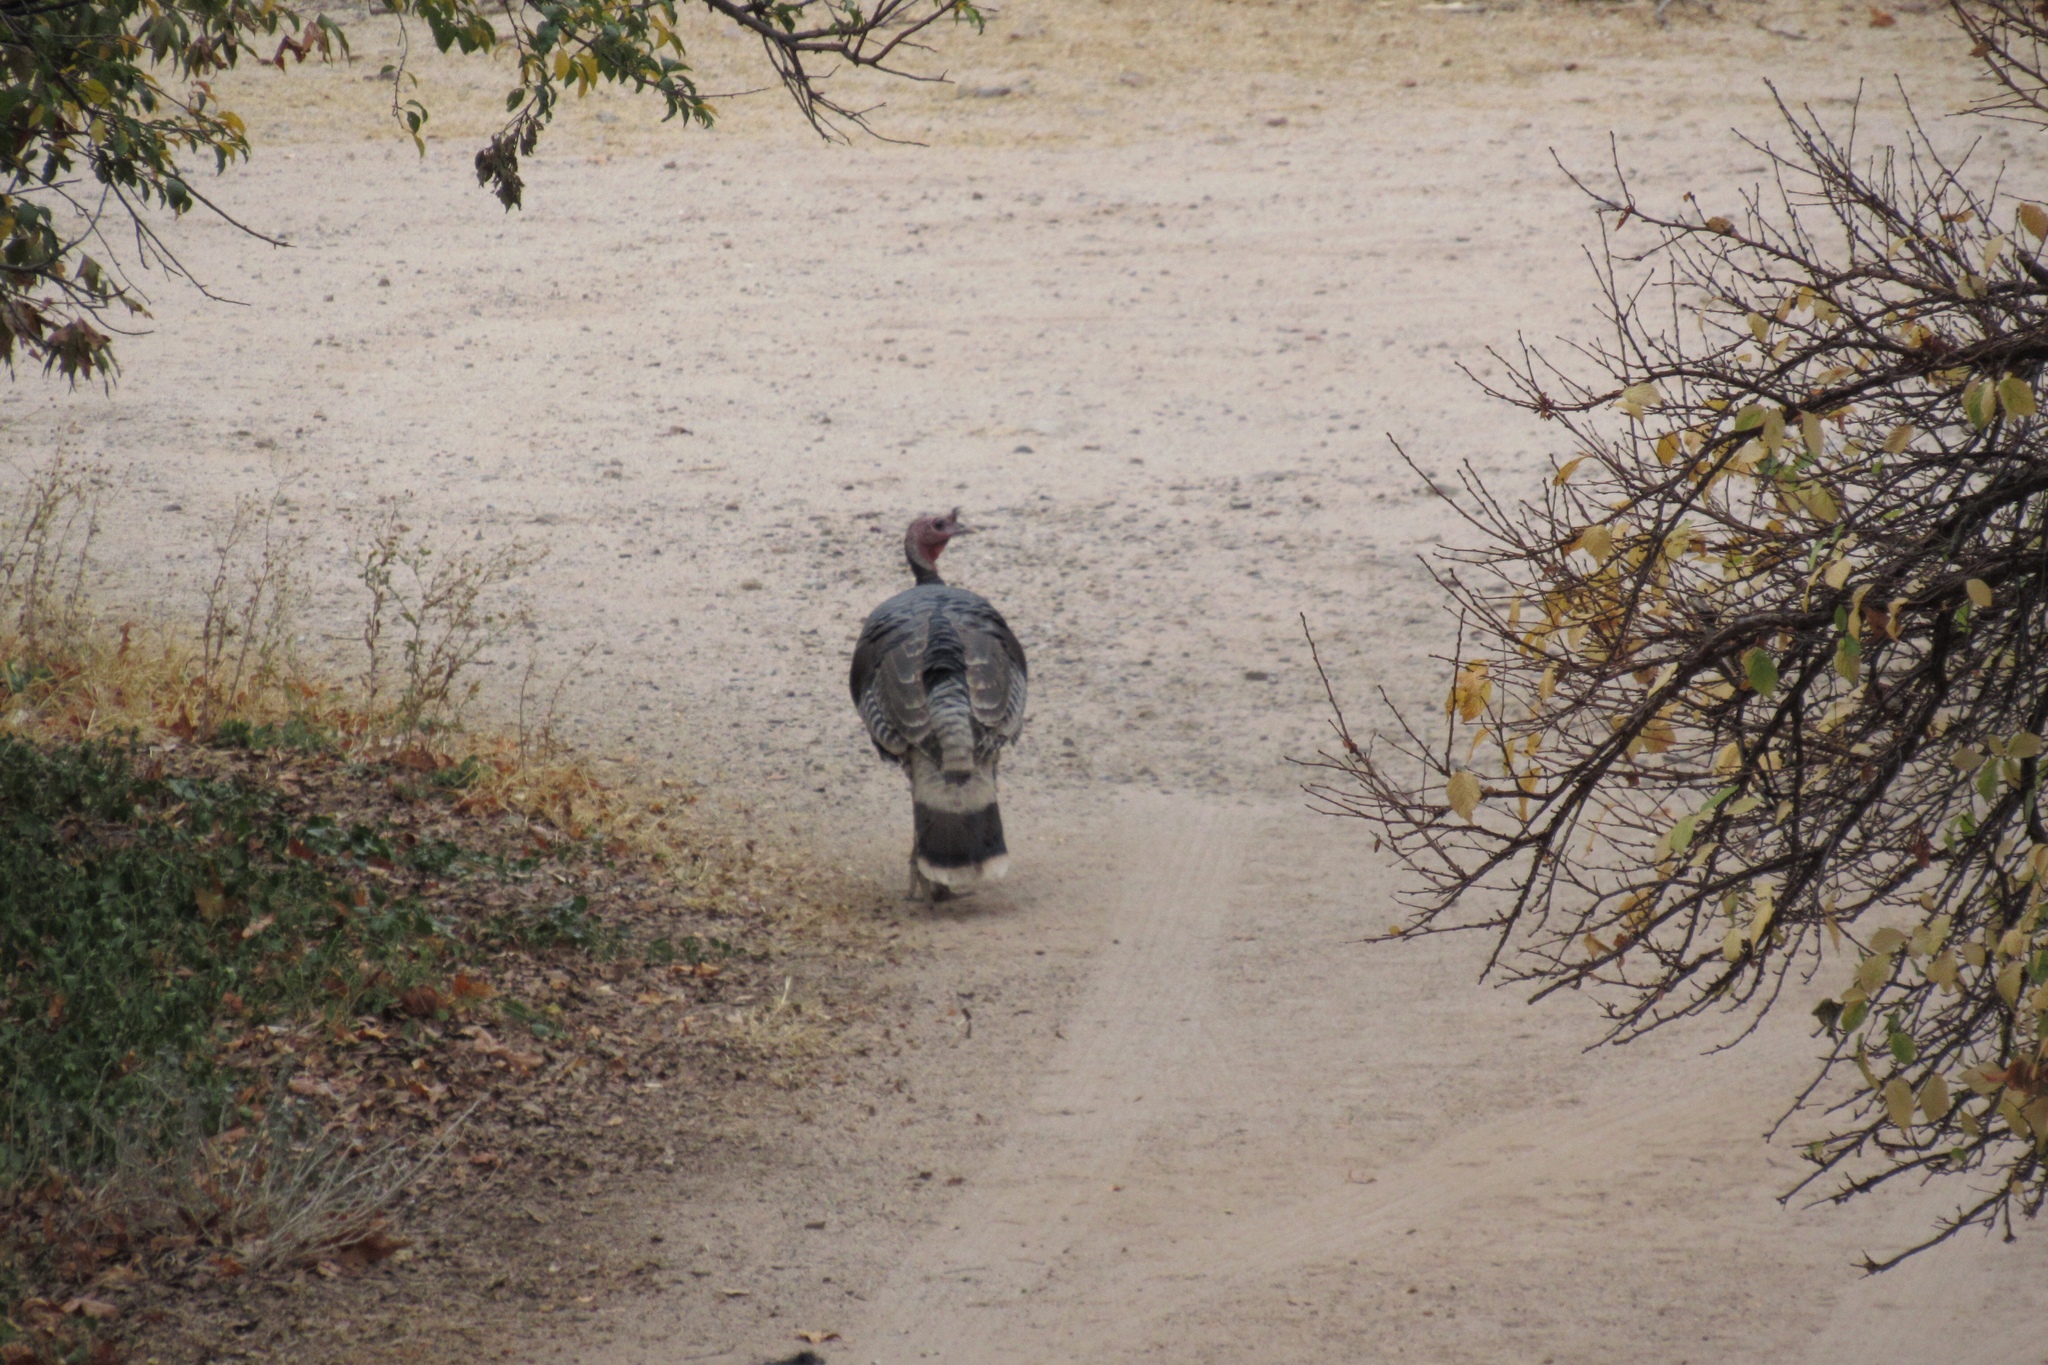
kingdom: Animalia
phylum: Chordata
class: Aves
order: Galliformes
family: Phasianidae
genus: Meleagris
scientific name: Meleagris gallopavo
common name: Wild turkey
